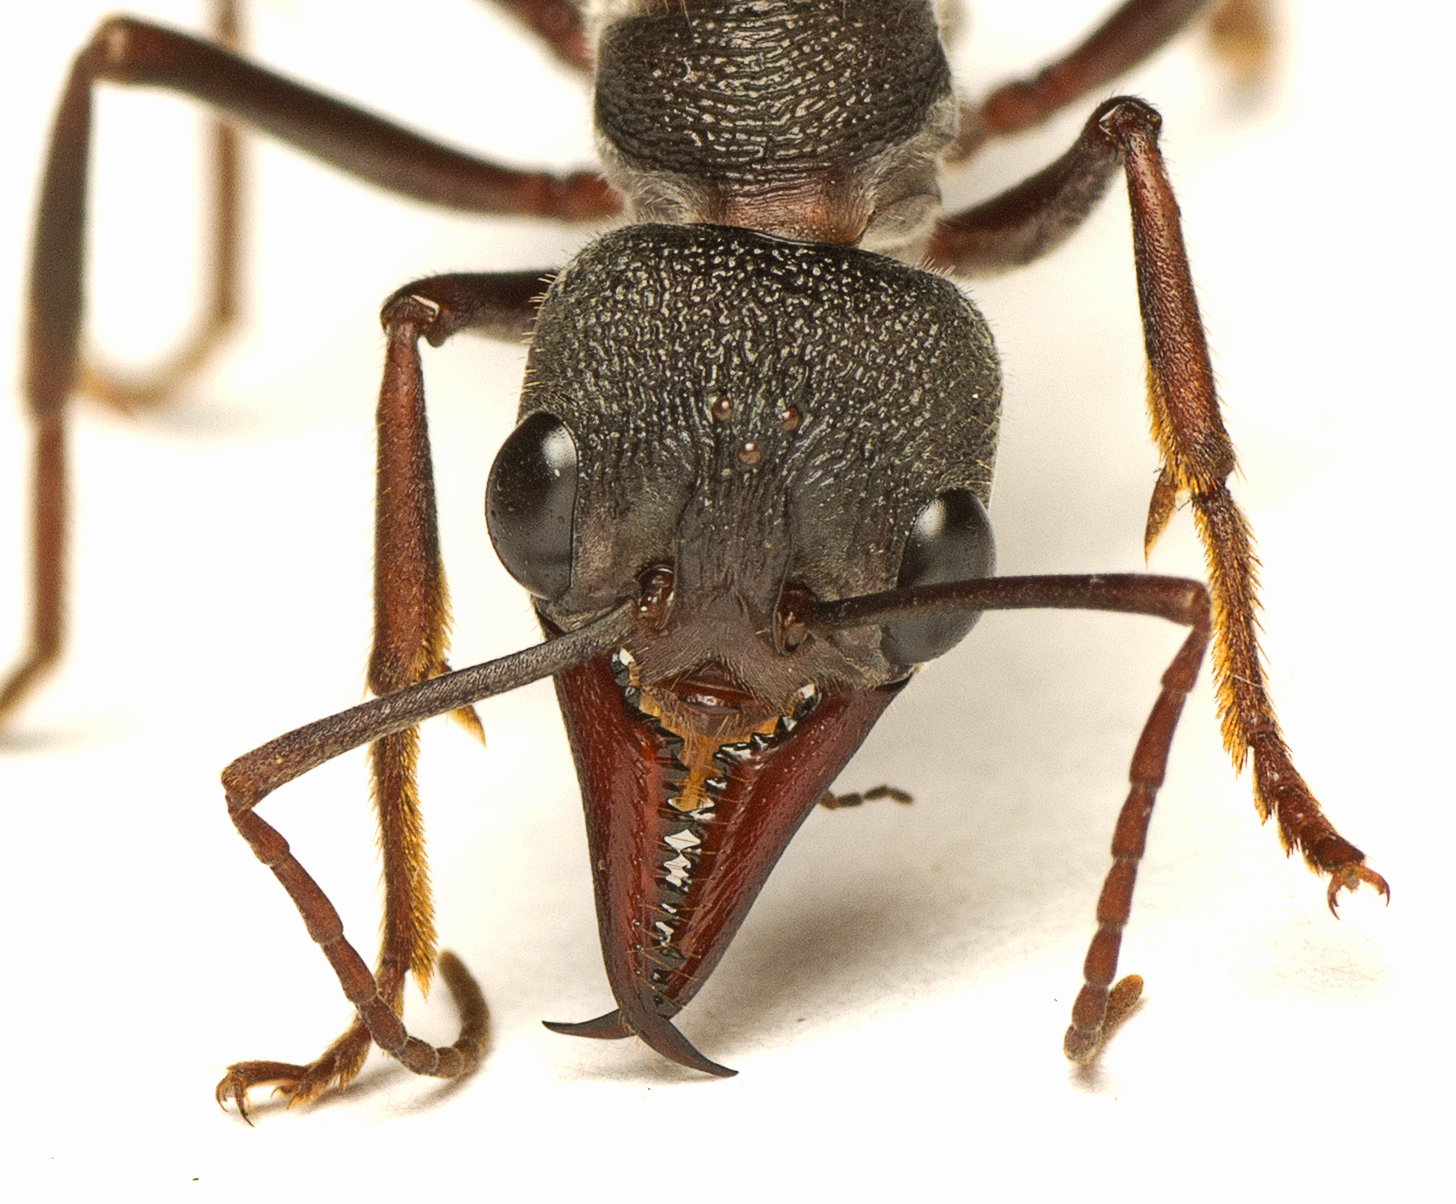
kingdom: Animalia
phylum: Arthropoda
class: Insecta
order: Hymenoptera
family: Formicidae
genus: Myrmecia
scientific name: Myrmecia pyriformis
